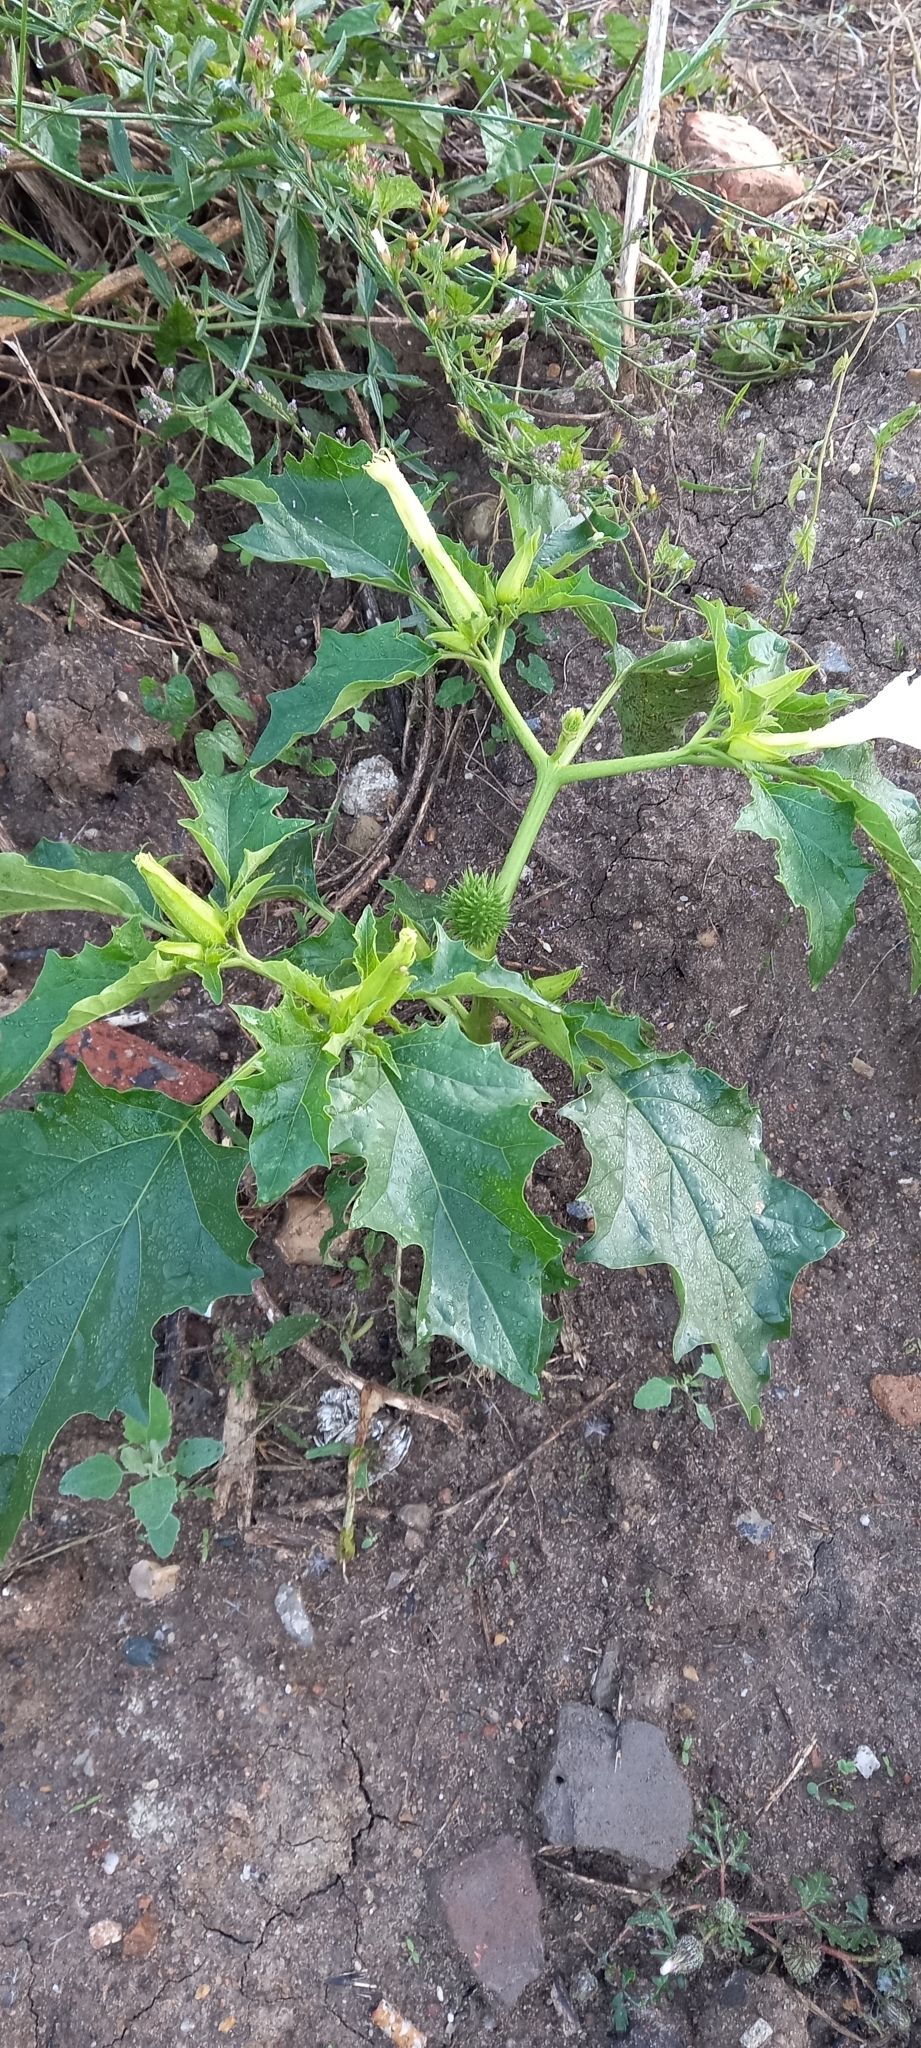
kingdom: Plantae
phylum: Tracheophyta
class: Magnoliopsida
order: Solanales
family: Solanaceae
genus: Datura
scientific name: Datura stramonium
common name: Thorn-apple
